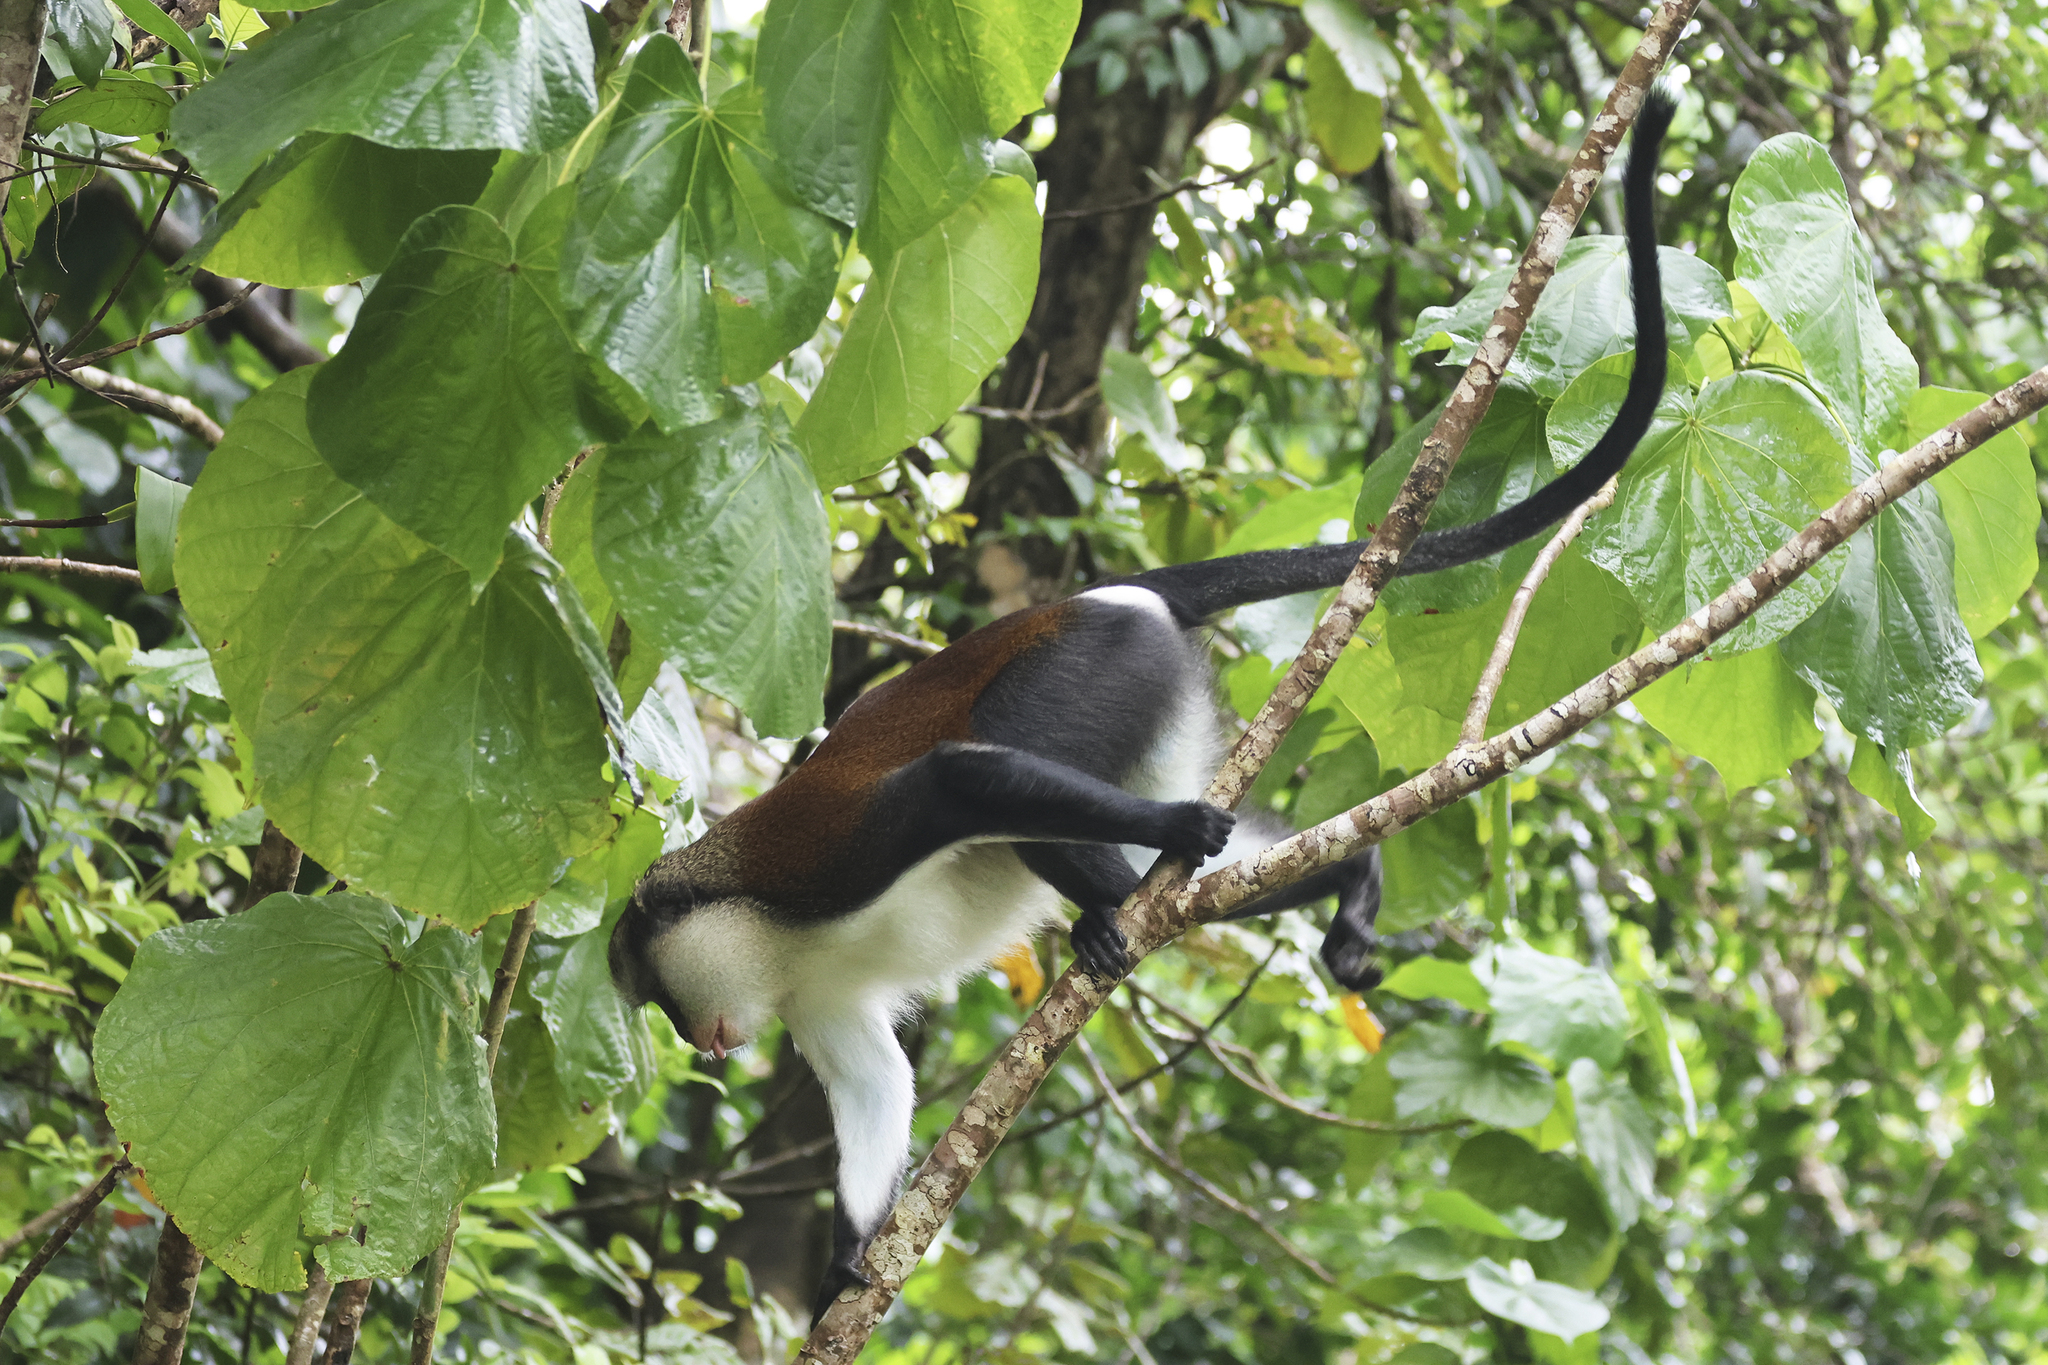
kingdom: Animalia
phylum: Chordata
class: Mammalia
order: Primates
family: Cercopithecidae
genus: Cercopithecus
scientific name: Cercopithecus mona
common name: Mona monkey
